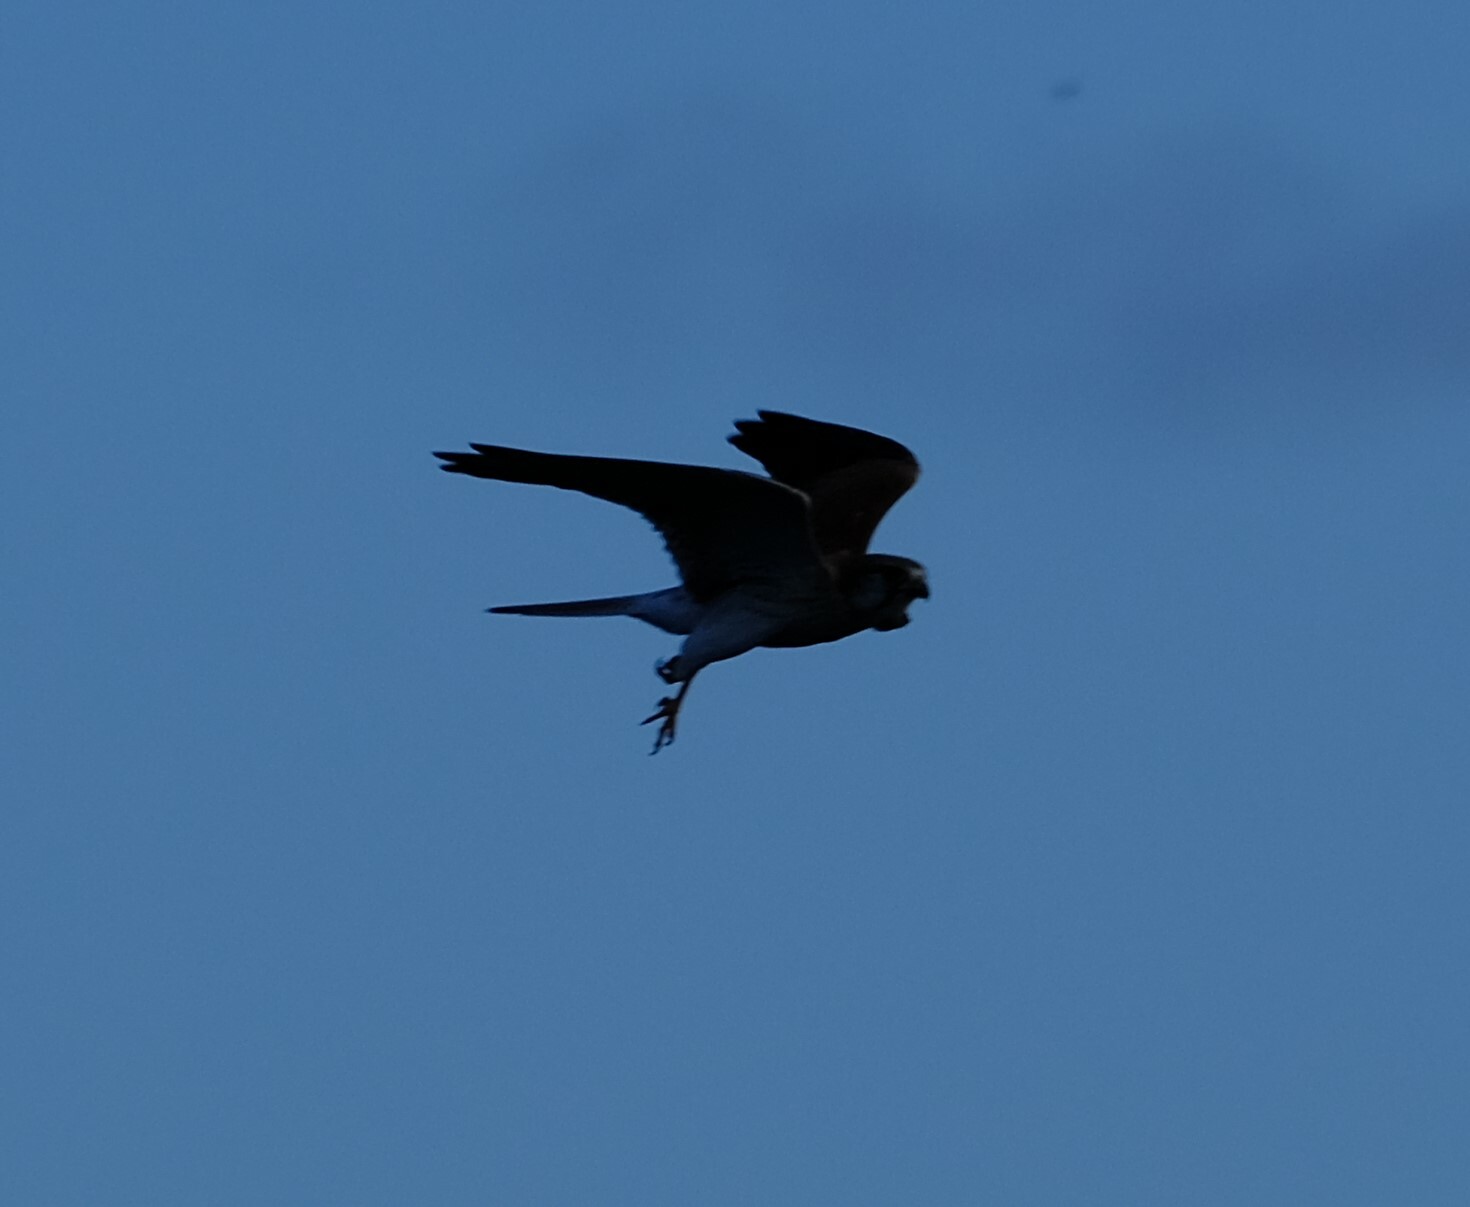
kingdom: Animalia
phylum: Chordata
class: Aves
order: Falconiformes
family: Falconidae
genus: Falco
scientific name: Falco cenchroides
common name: Nankeen kestrel
